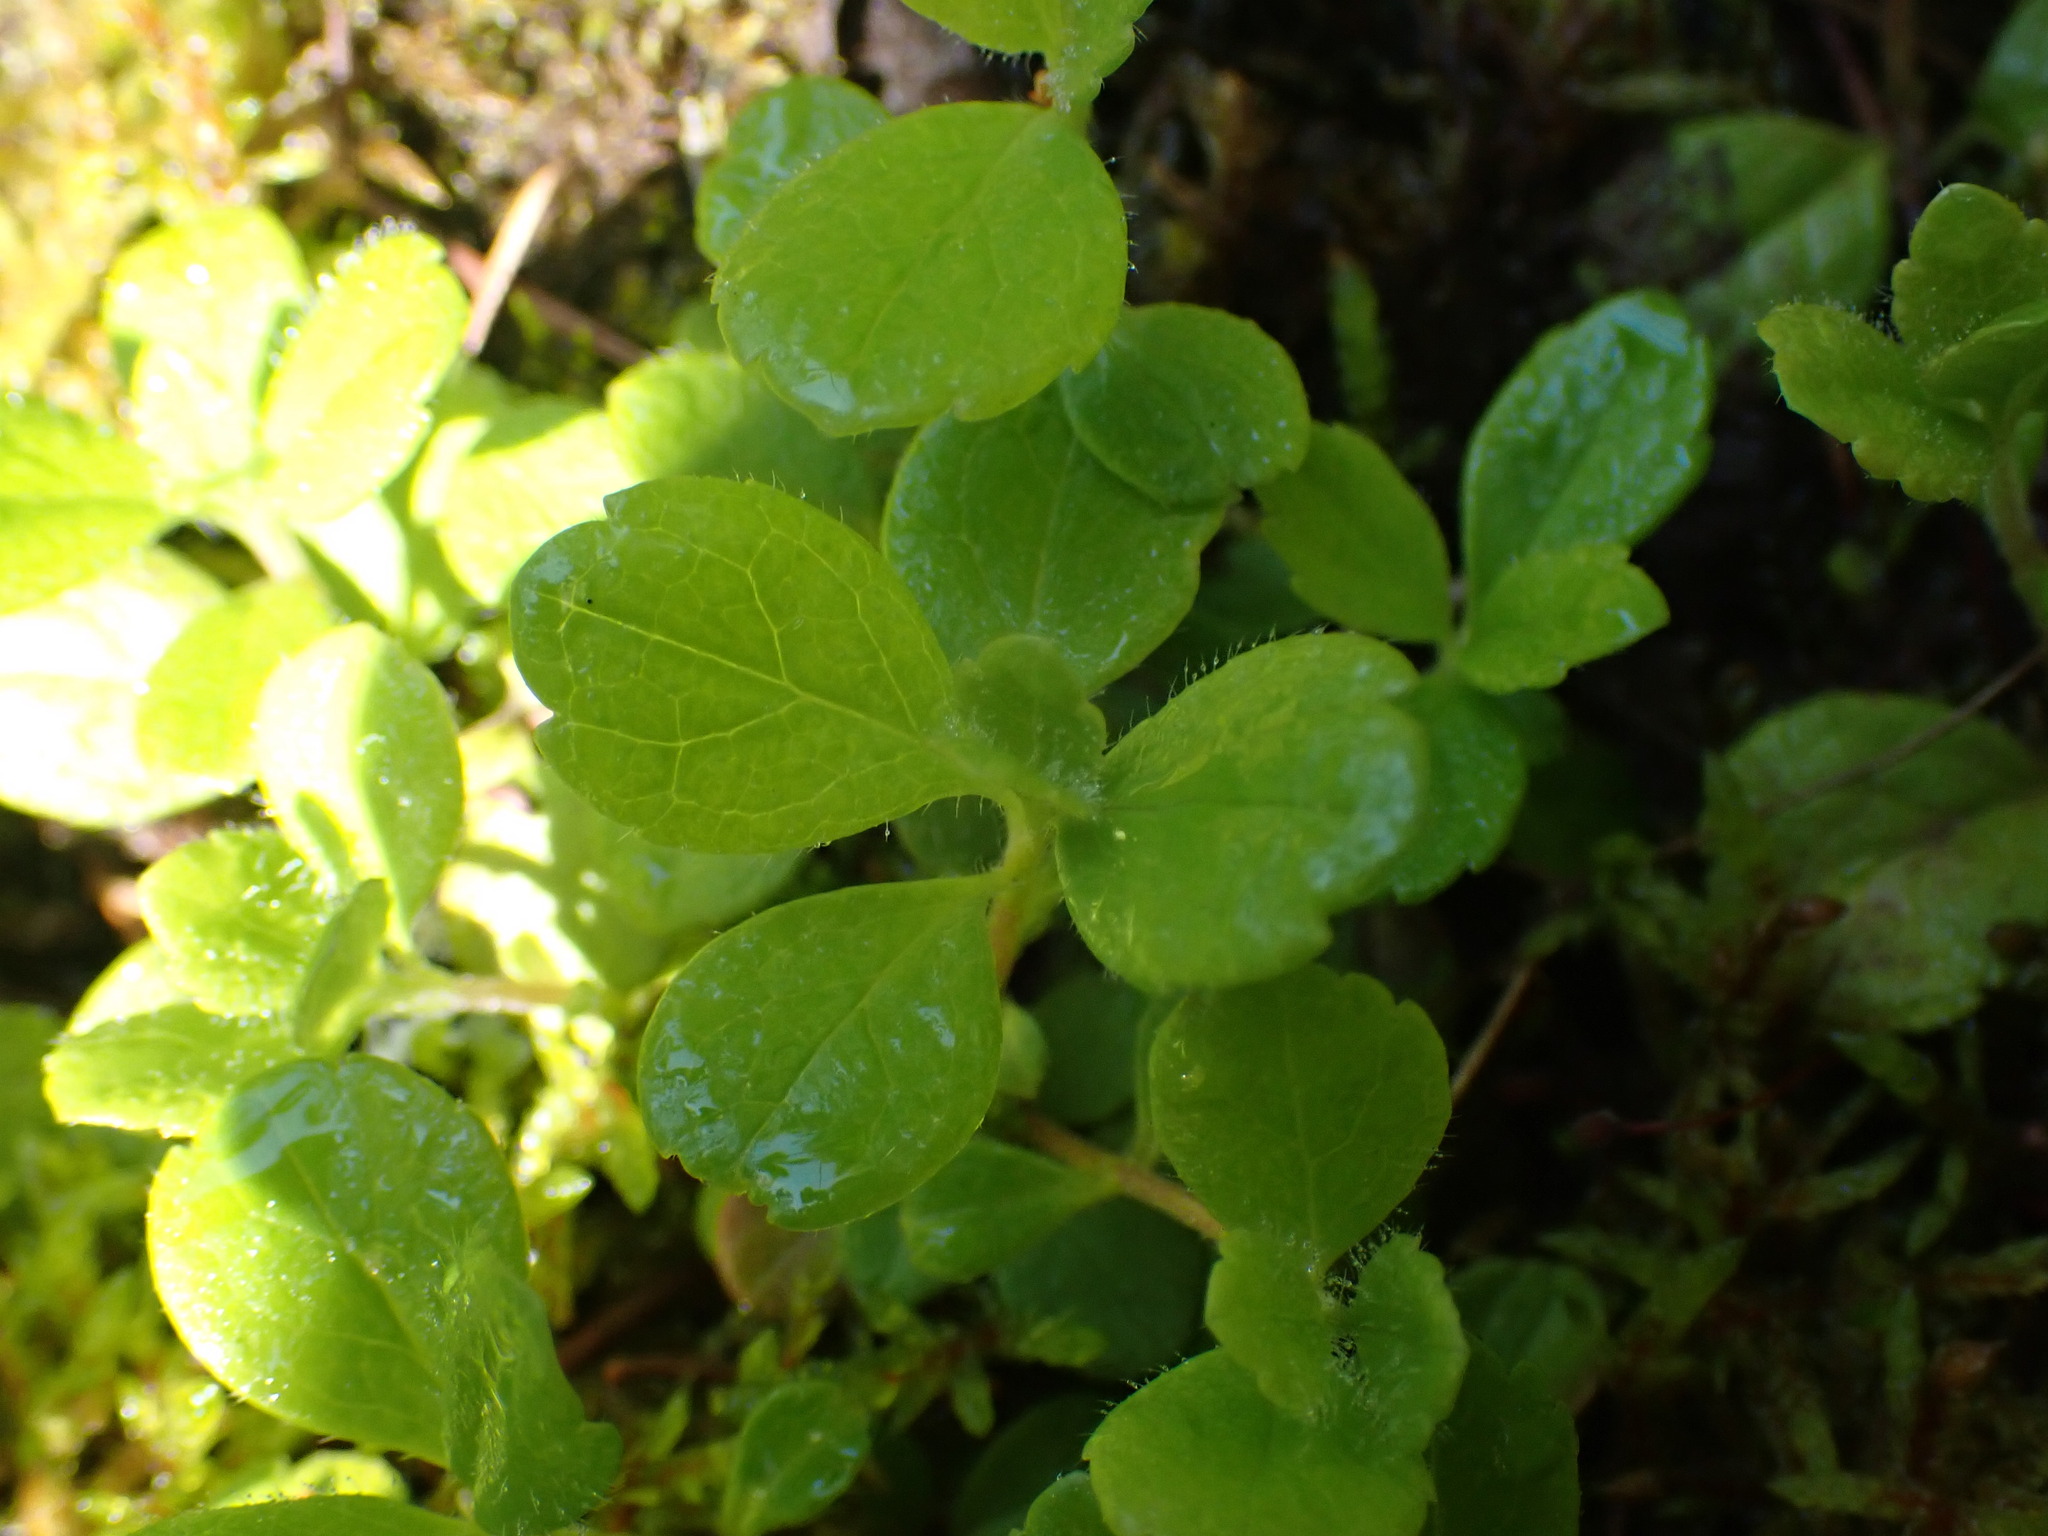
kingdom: Plantae
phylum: Tracheophyta
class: Magnoliopsida
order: Dipsacales
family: Caprifoliaceae
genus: Linnaea
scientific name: Linnaea borealis
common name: Twinflower
